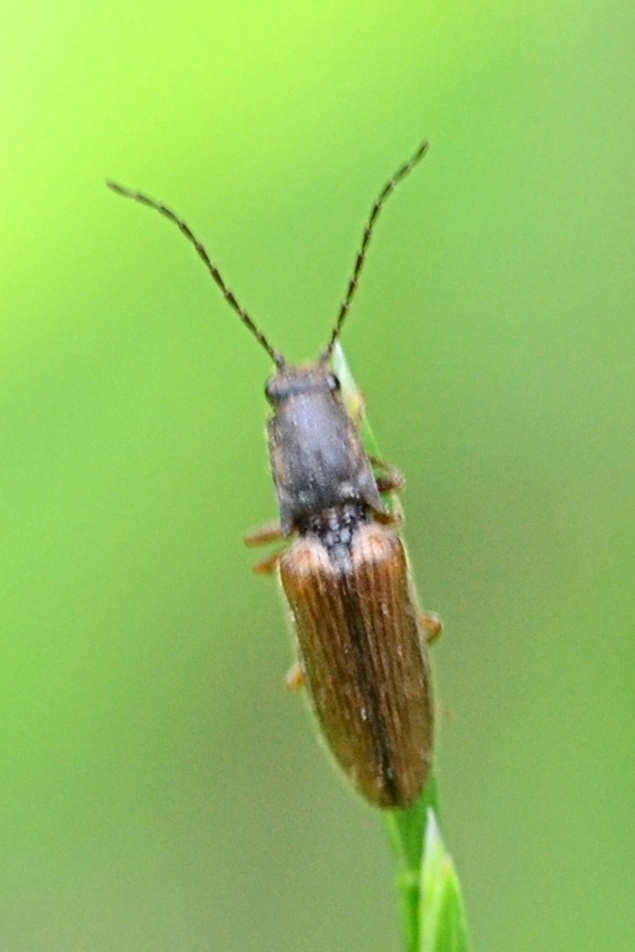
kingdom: Animalia
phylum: Arthropoda
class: Insecta
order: Coleoptera
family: Elateridae
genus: Athous
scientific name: Athous bicolor
